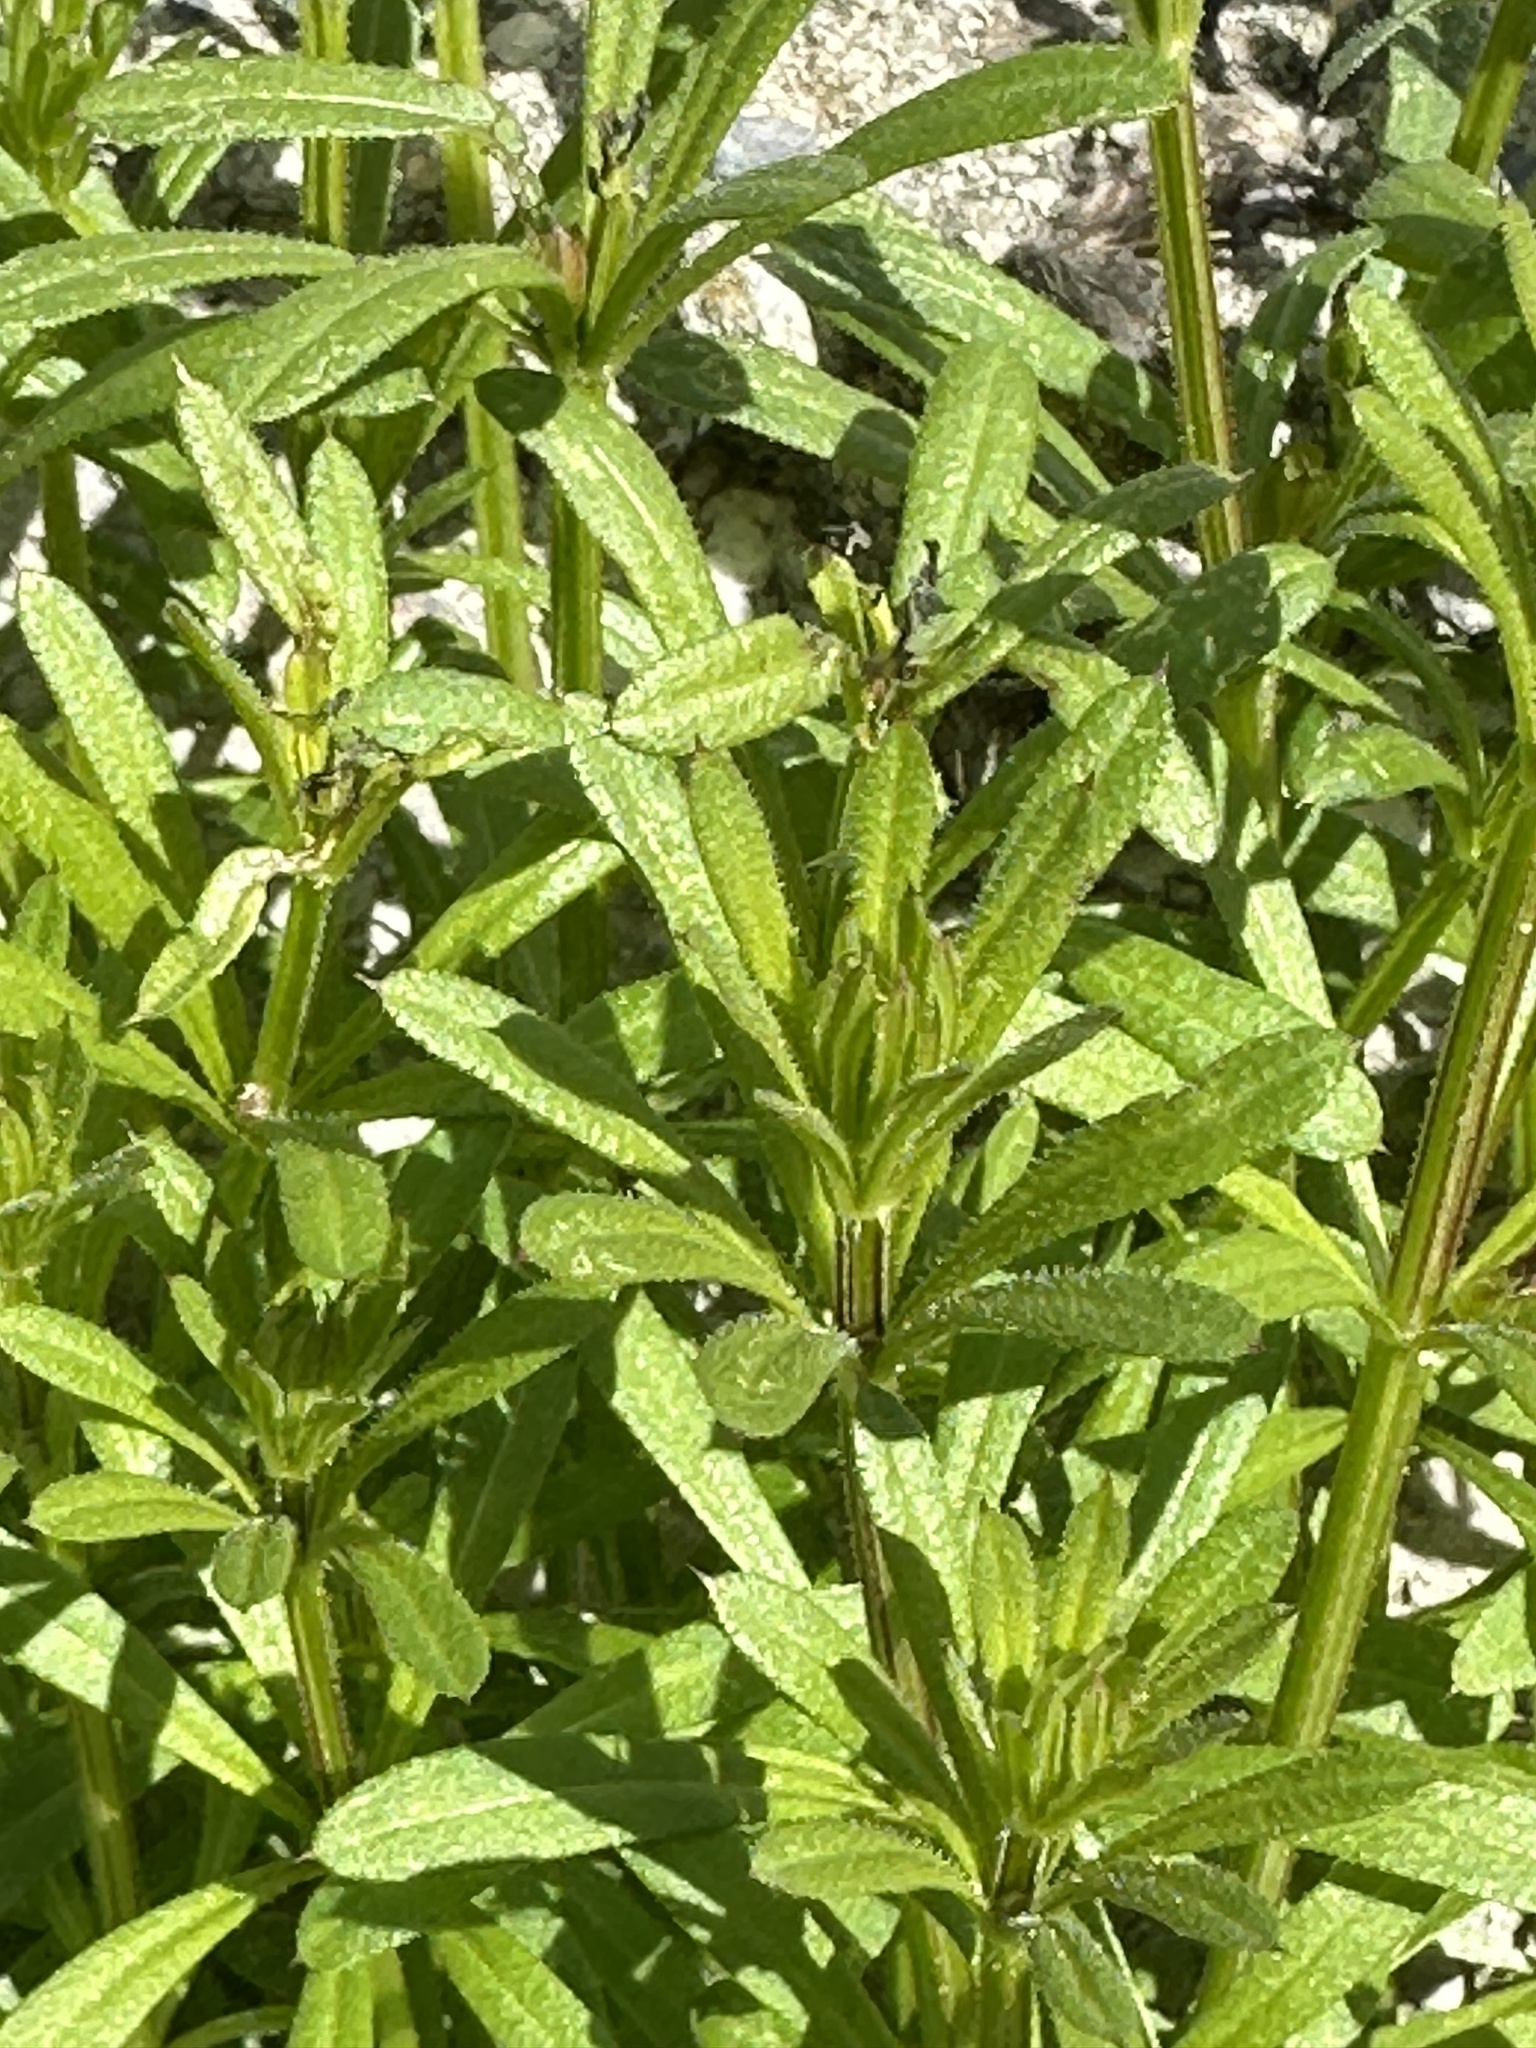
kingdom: Plantae
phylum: Tracheophyta
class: Magnoliopsida
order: Gentianales
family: Rubiaceae
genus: Galium
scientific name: Galium aparine
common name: Cleavers
